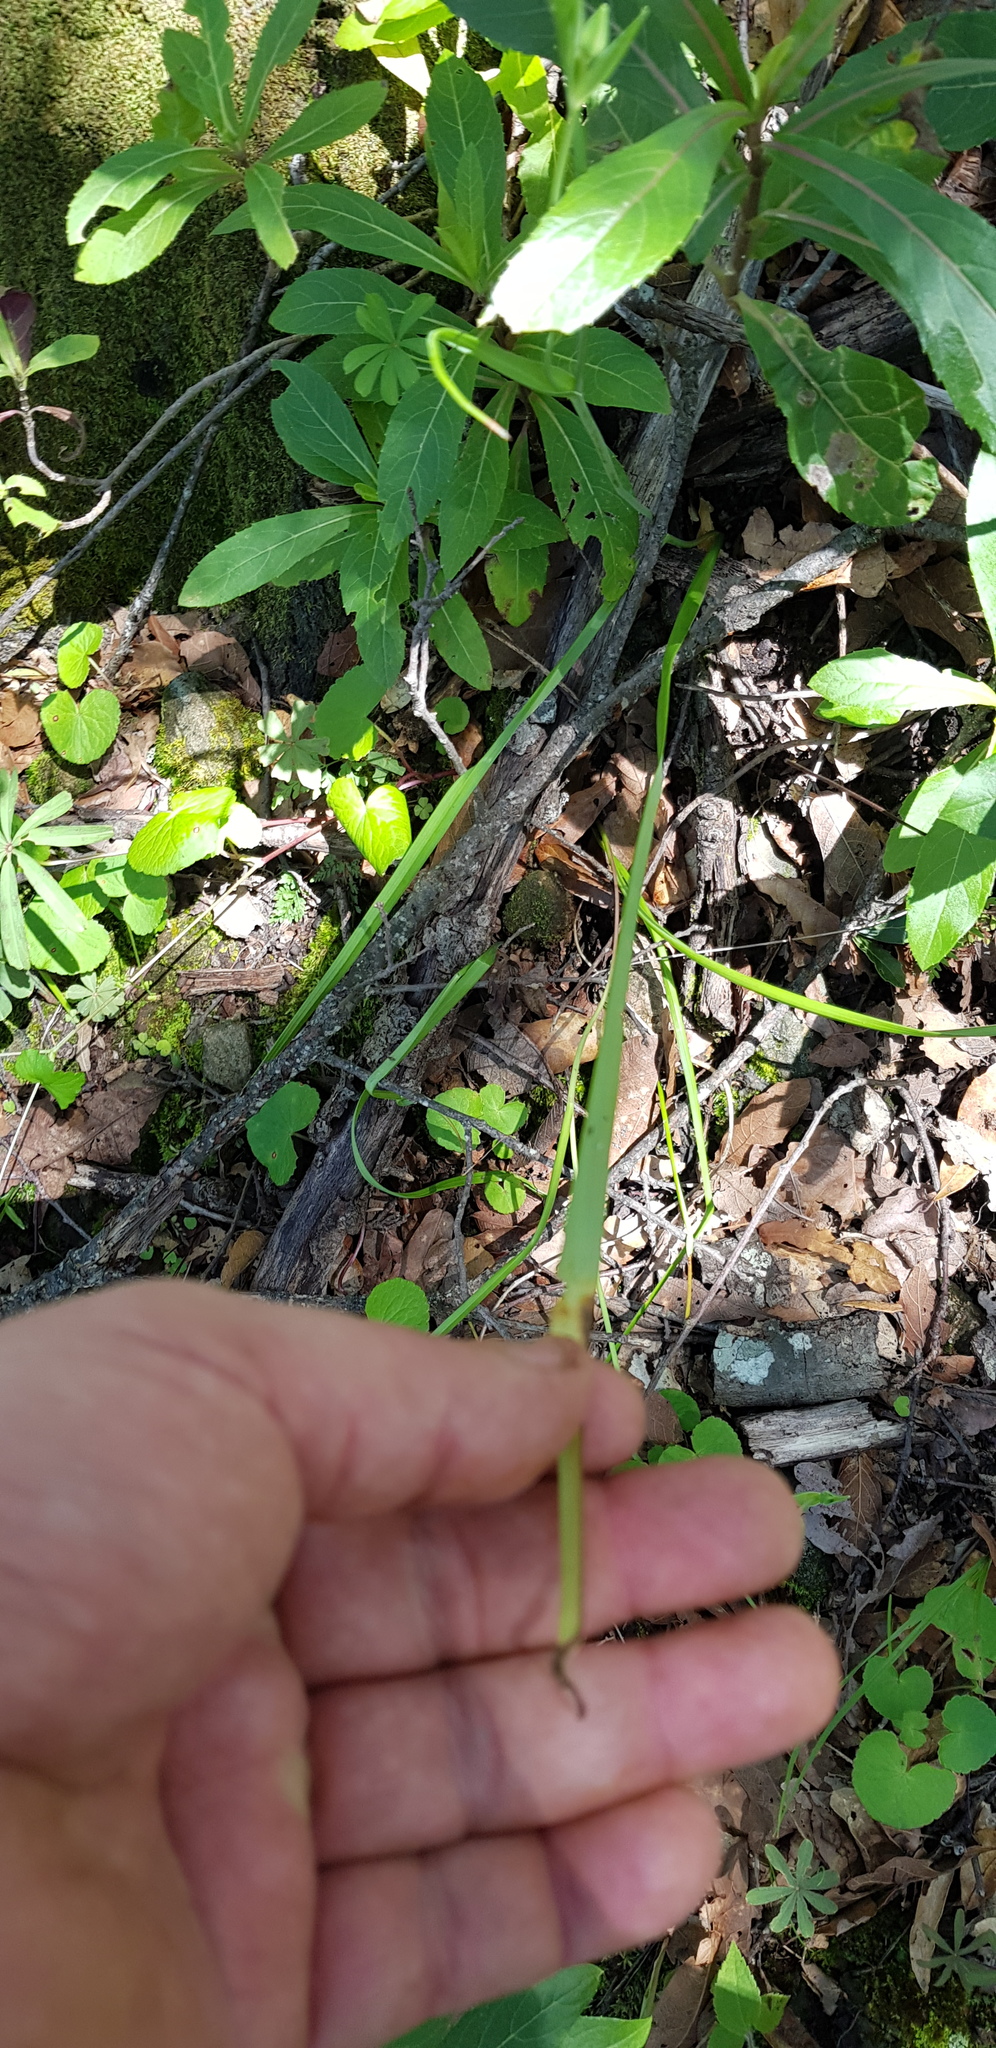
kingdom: Plantae
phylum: Tracheophyta
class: Liliopsida
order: Liliales
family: Liliaceae
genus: Calochortus
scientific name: Calochortus barbatus
